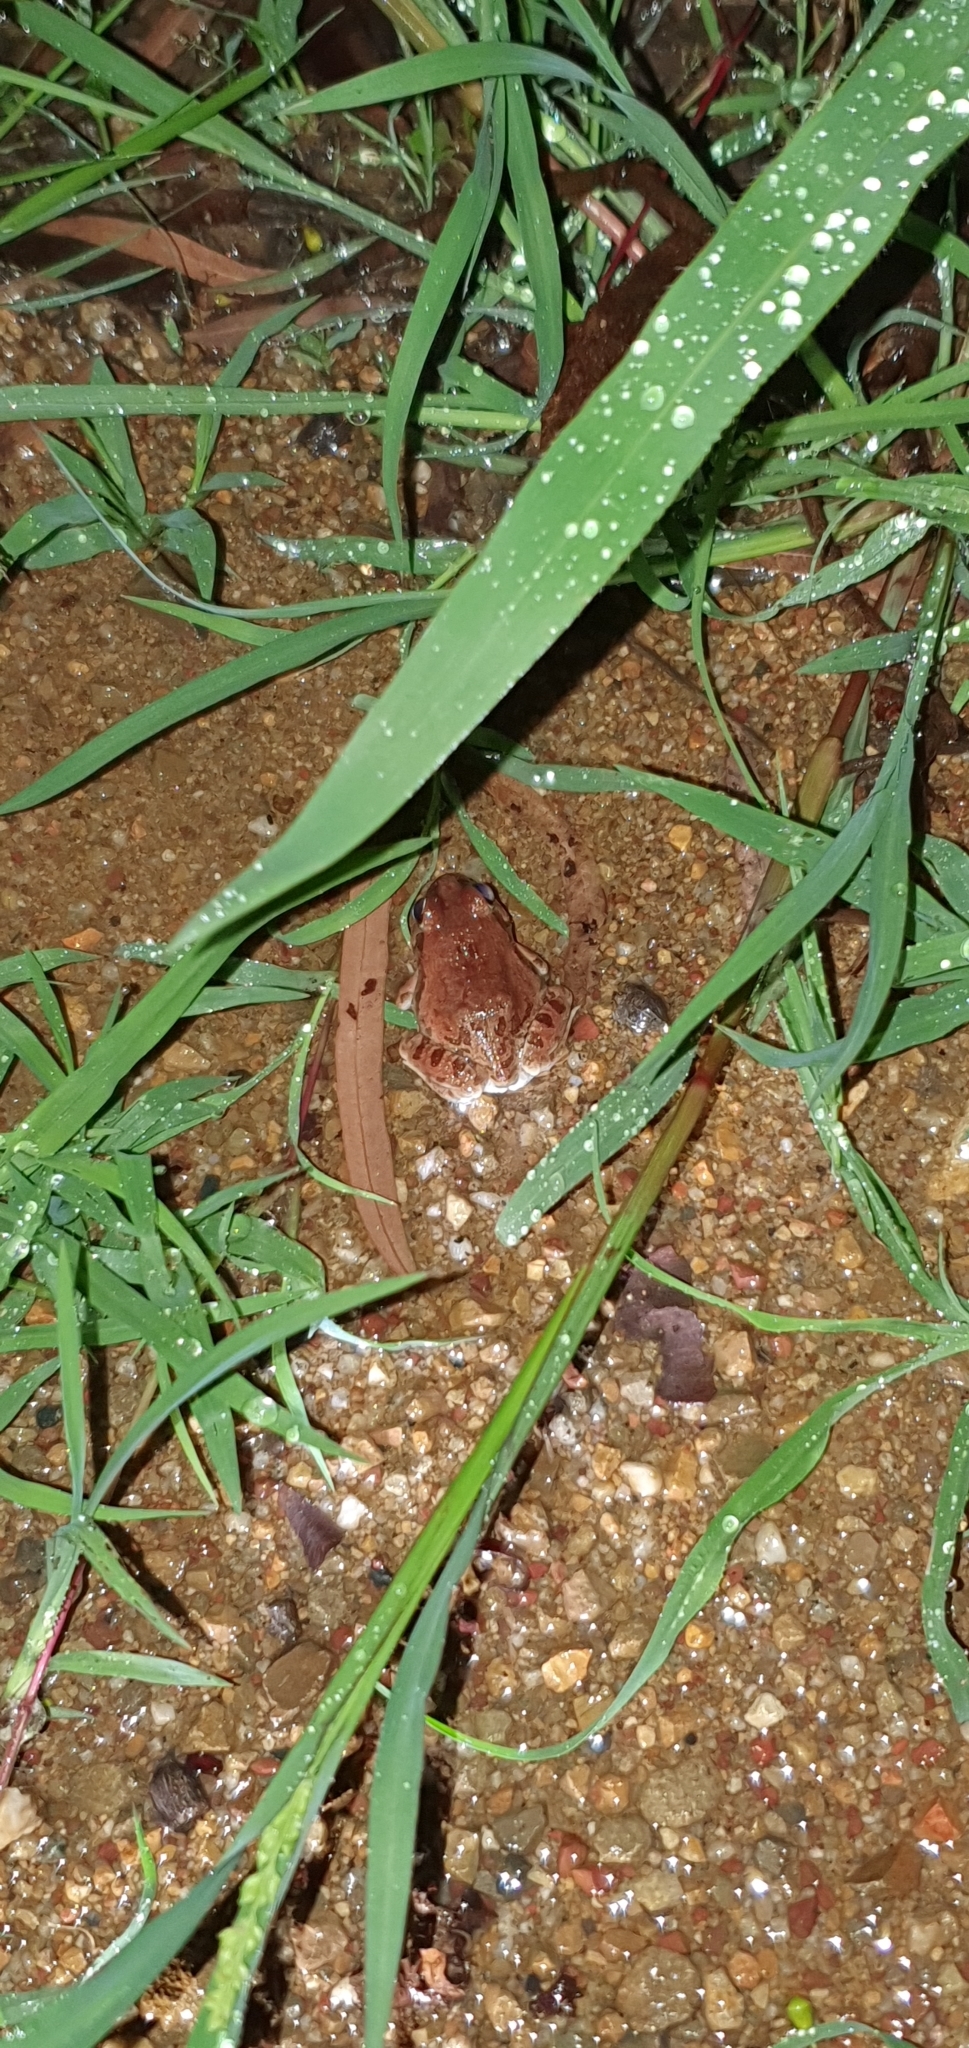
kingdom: Animalia
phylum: Chordata
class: Amphibia
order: Anura
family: Limnodynastidae
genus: Platyplectrum
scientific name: Platyplectrum ornatum
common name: Ornate burrowing frog
